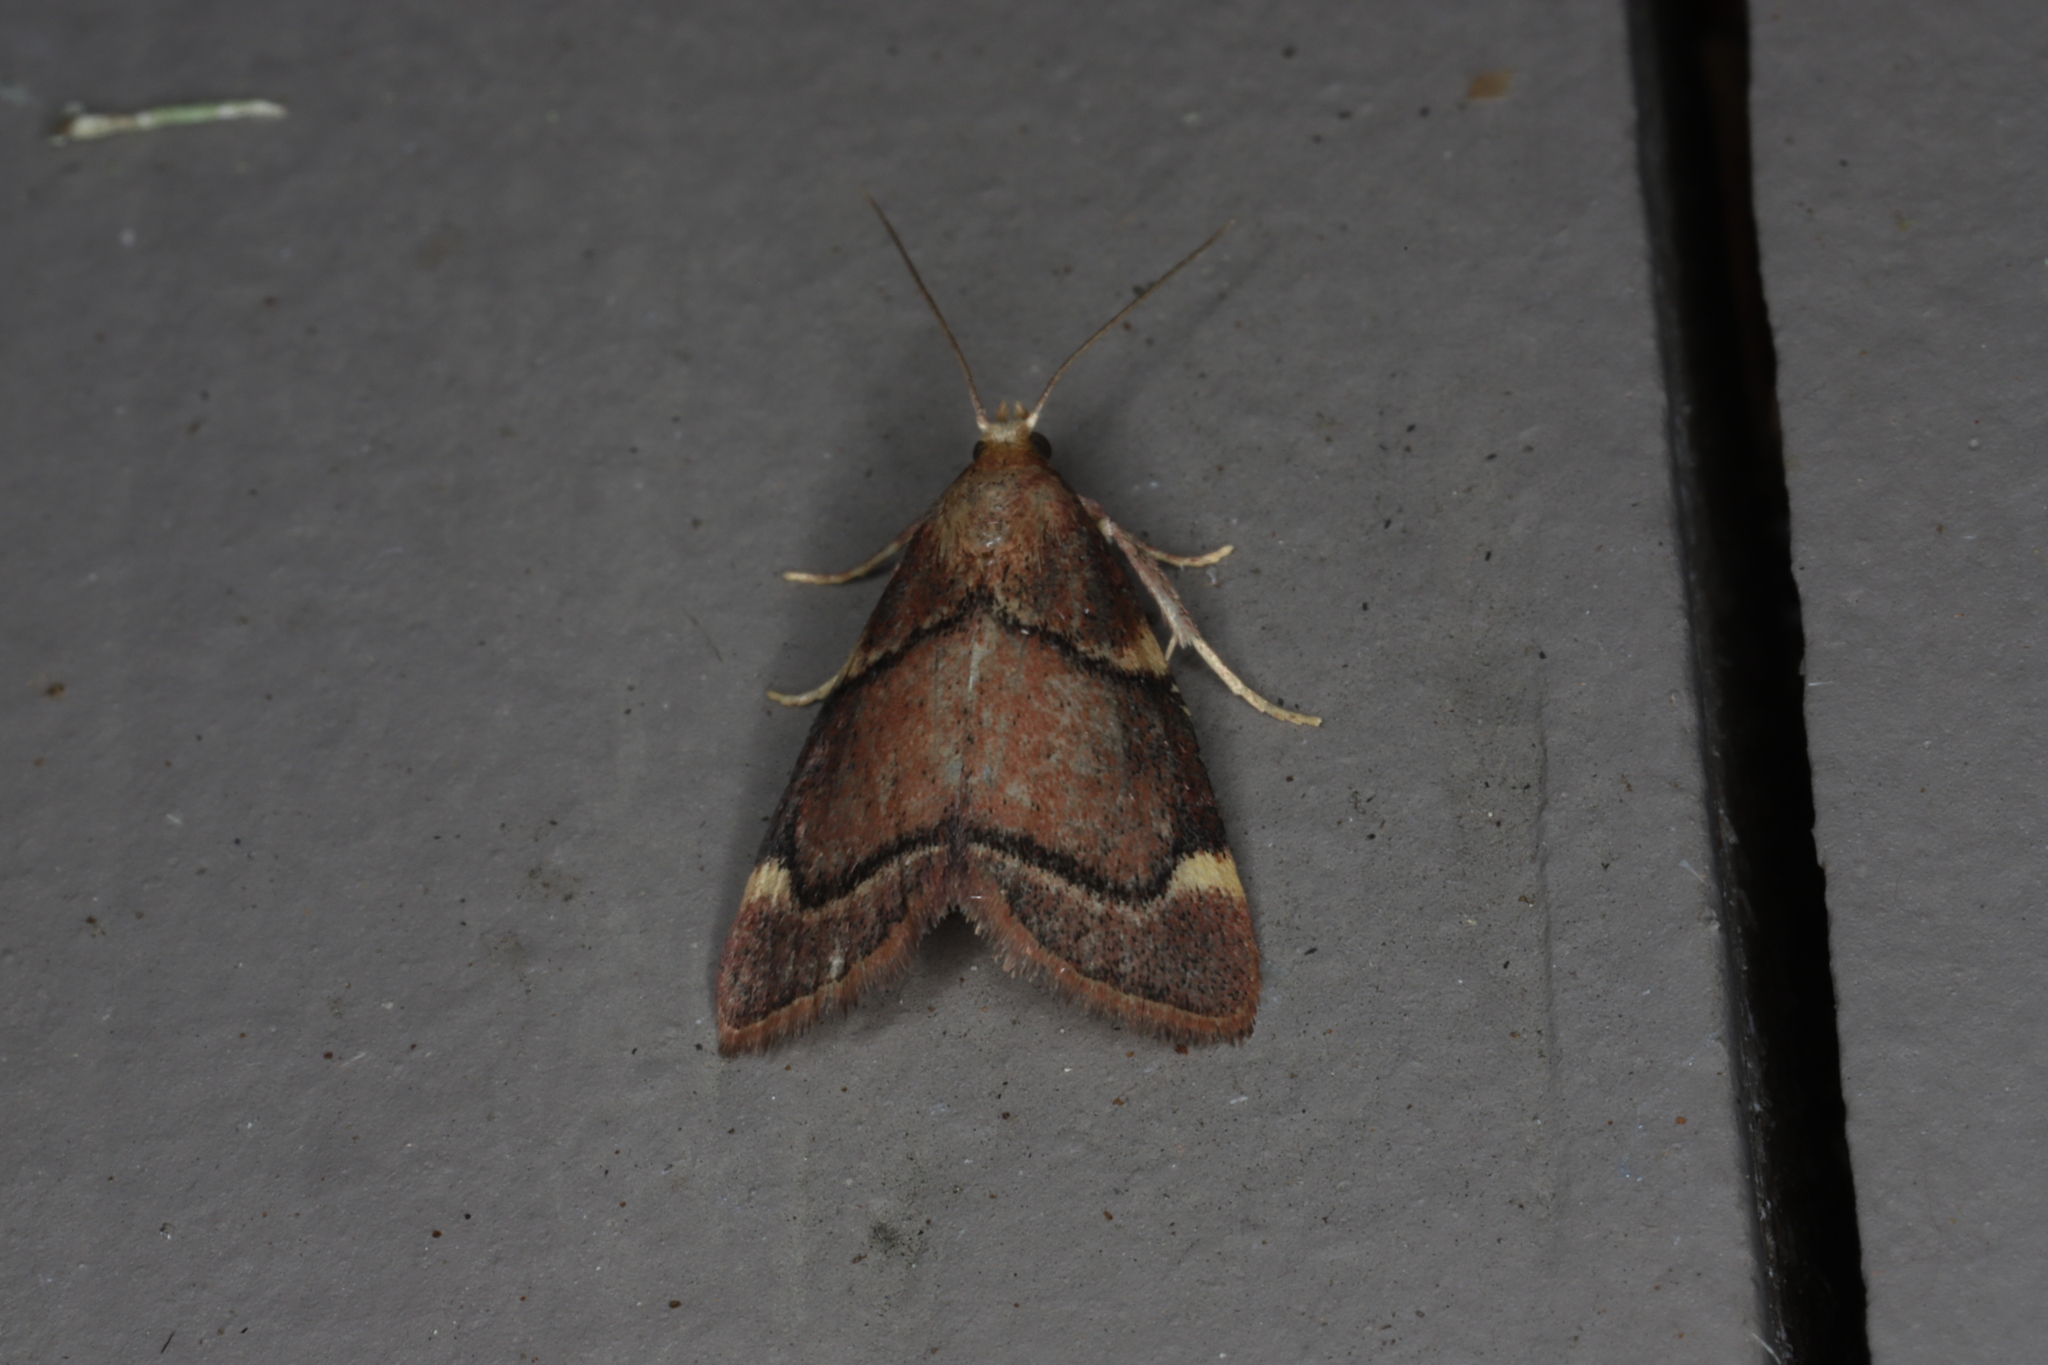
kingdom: Animalia
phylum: Arthropoda
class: Insecta
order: Lepidoptera
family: Pyralidae
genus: Hypsopygia
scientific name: Hypsopygia thymetusalis
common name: Spruce needleworm moth
